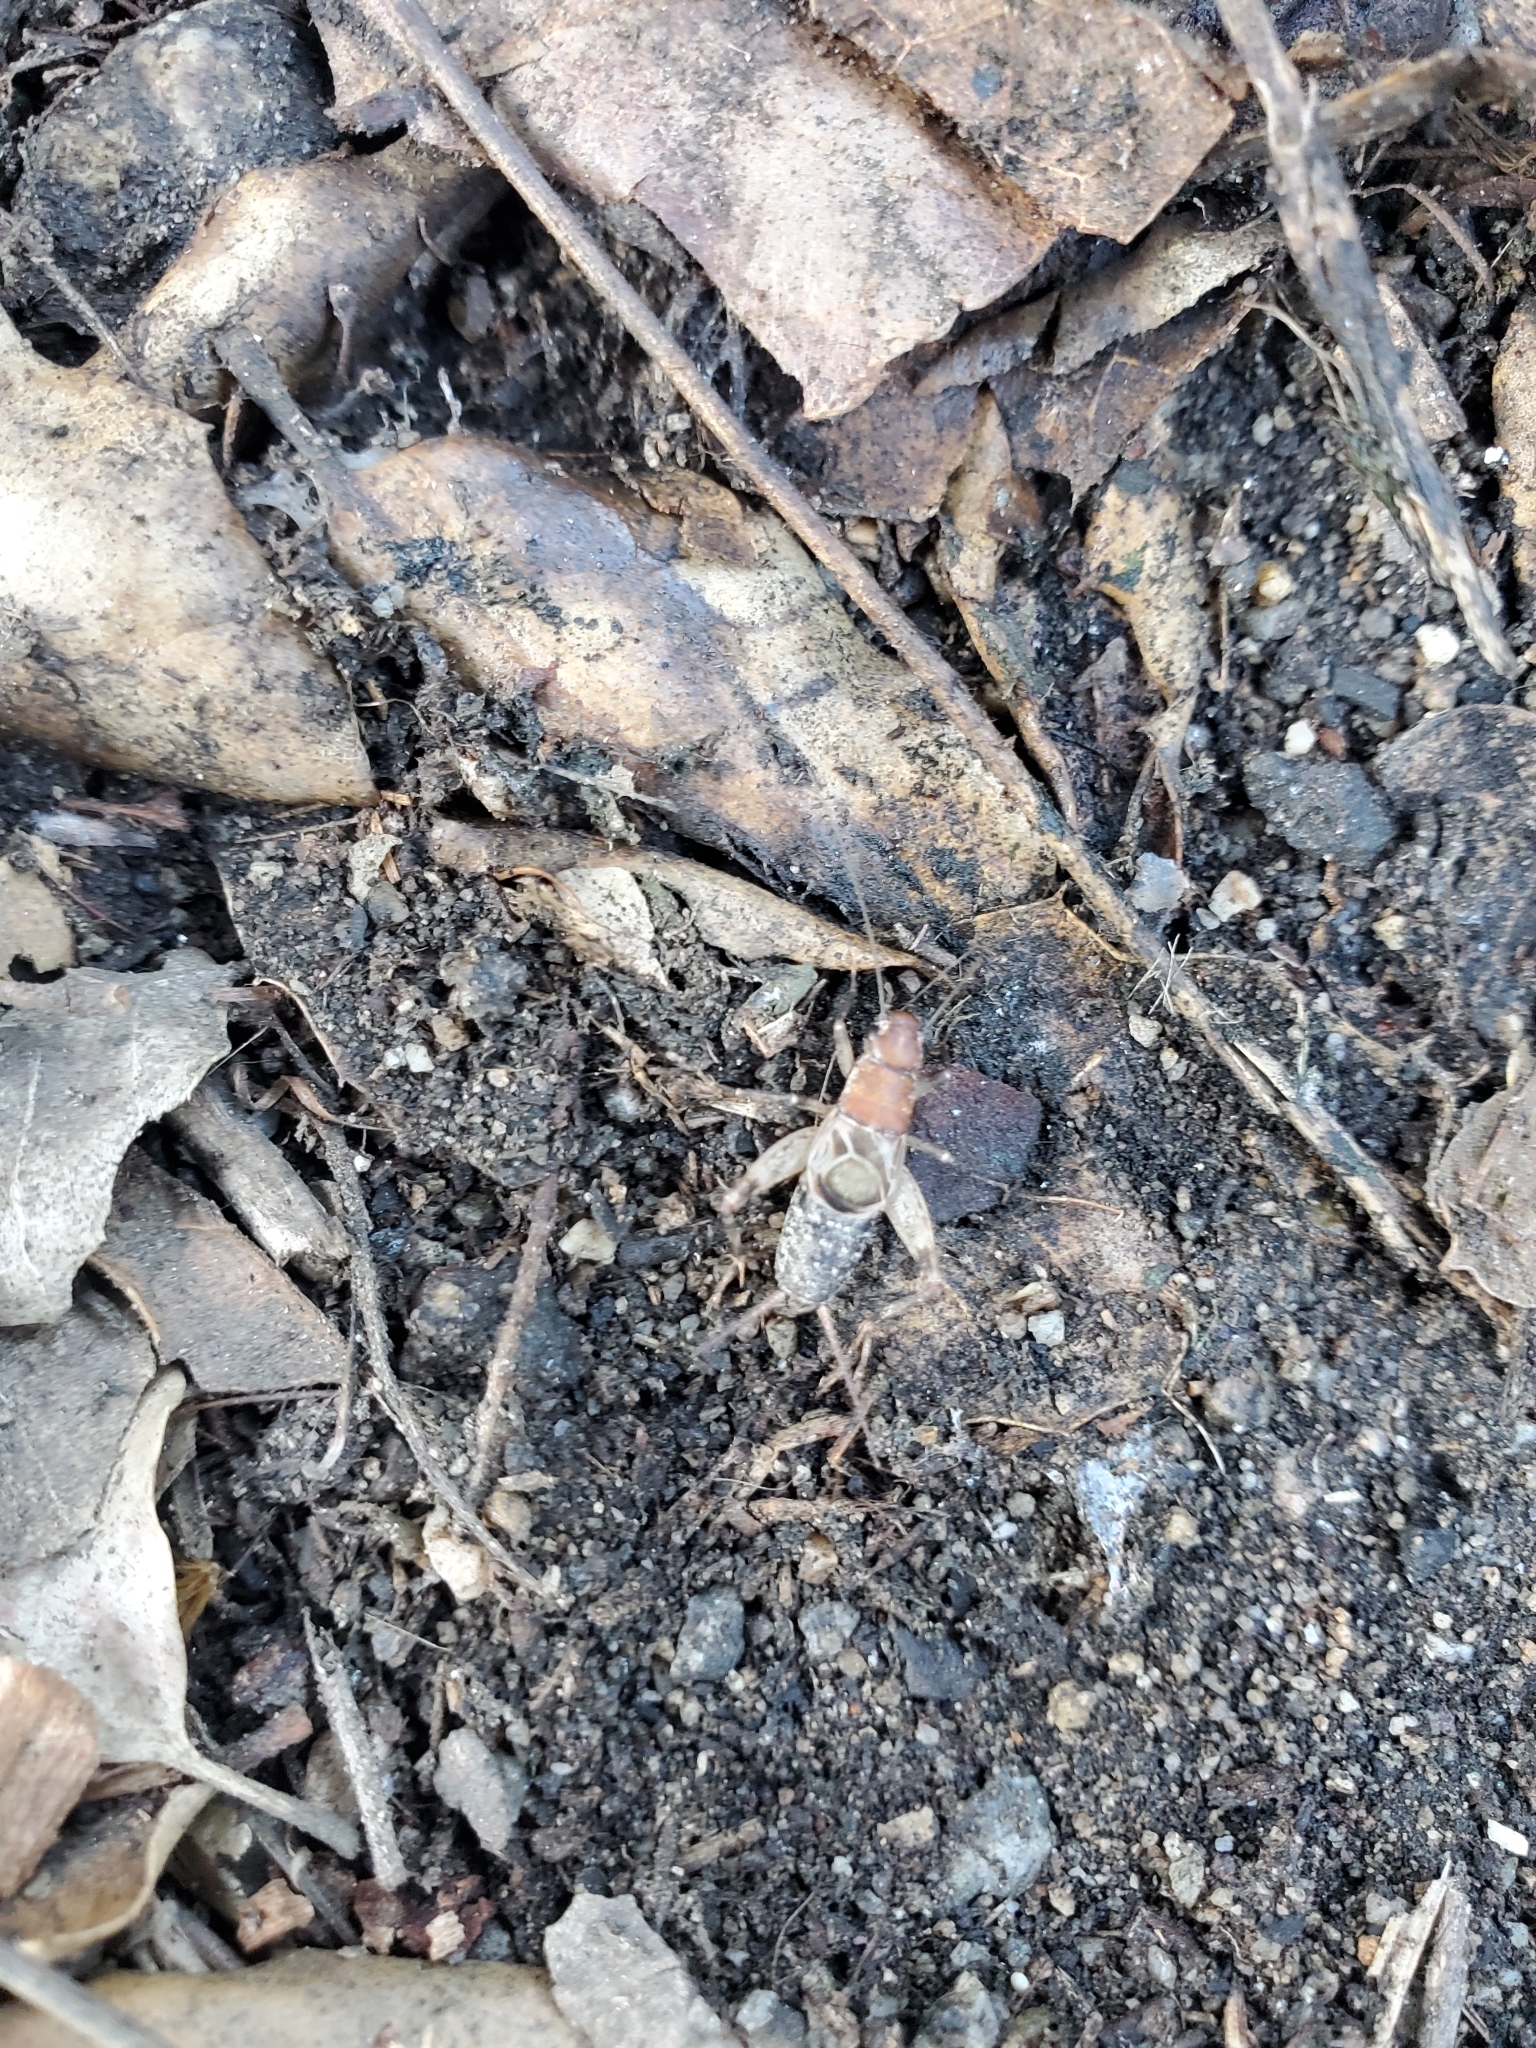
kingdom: Animalia
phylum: Arthropoda
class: Insecta
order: Orthoptera
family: Mogoplistidae
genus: Hoplosphyrum
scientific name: Hoplosphyrum boreale
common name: Long-winged scaly cricket
